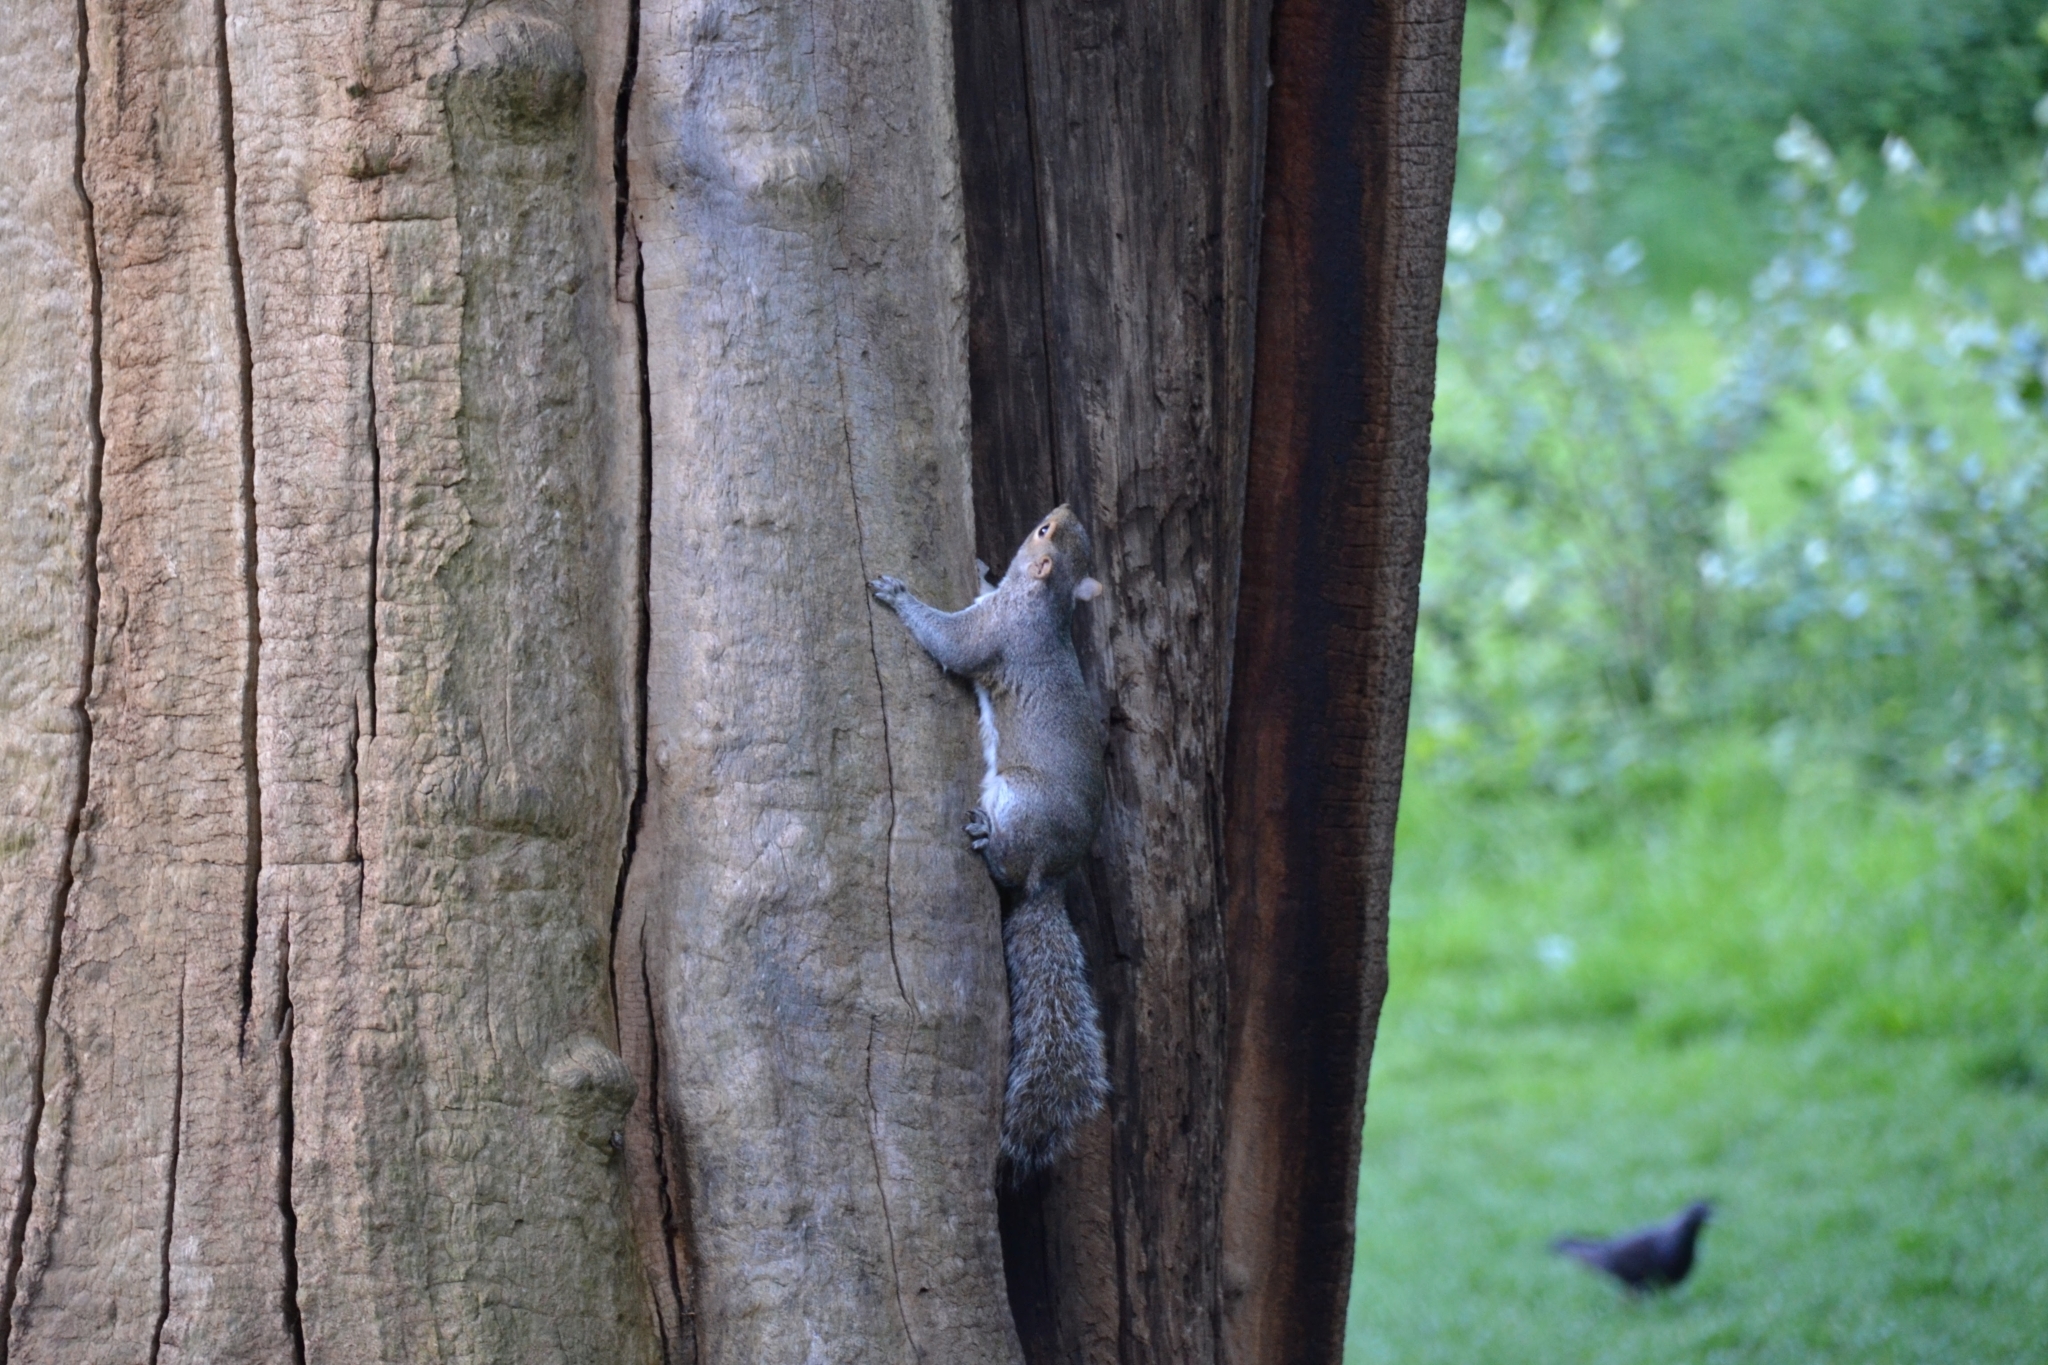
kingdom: Animalia
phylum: Chordata
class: Mammalia
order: Rodentia
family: Sciuridae
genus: Sciurus
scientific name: Sciurus carolinensis
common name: Eastern gray squirrel
